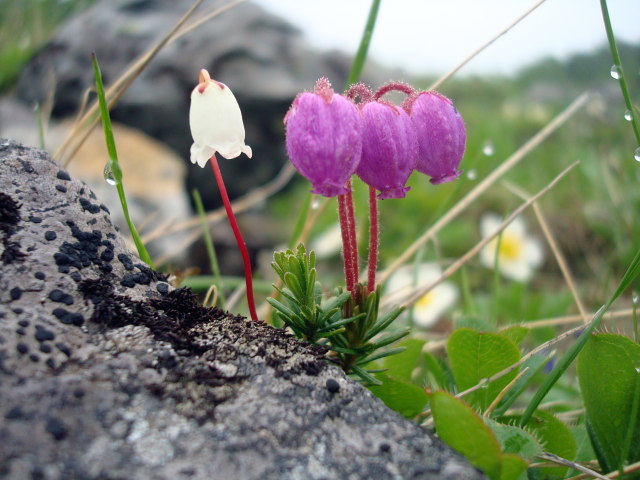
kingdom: Plantae
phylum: Tracheophyta
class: Magnoliopsida
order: Ericales
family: Ericaceae
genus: Phyllodoce
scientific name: Phyllodoce caerulea
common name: Blue heath
